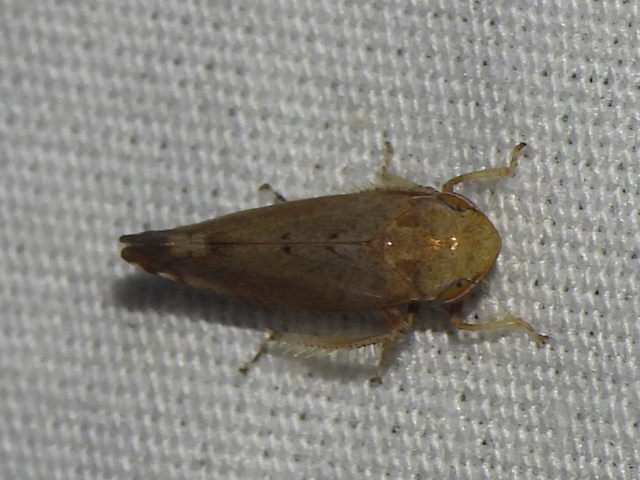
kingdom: Animalia
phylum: Arthropoda
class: Insecta
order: Hemiptera
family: Cicadellidae
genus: Fieberiella
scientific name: Fieberiella florii
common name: Flor’s leafhopper
